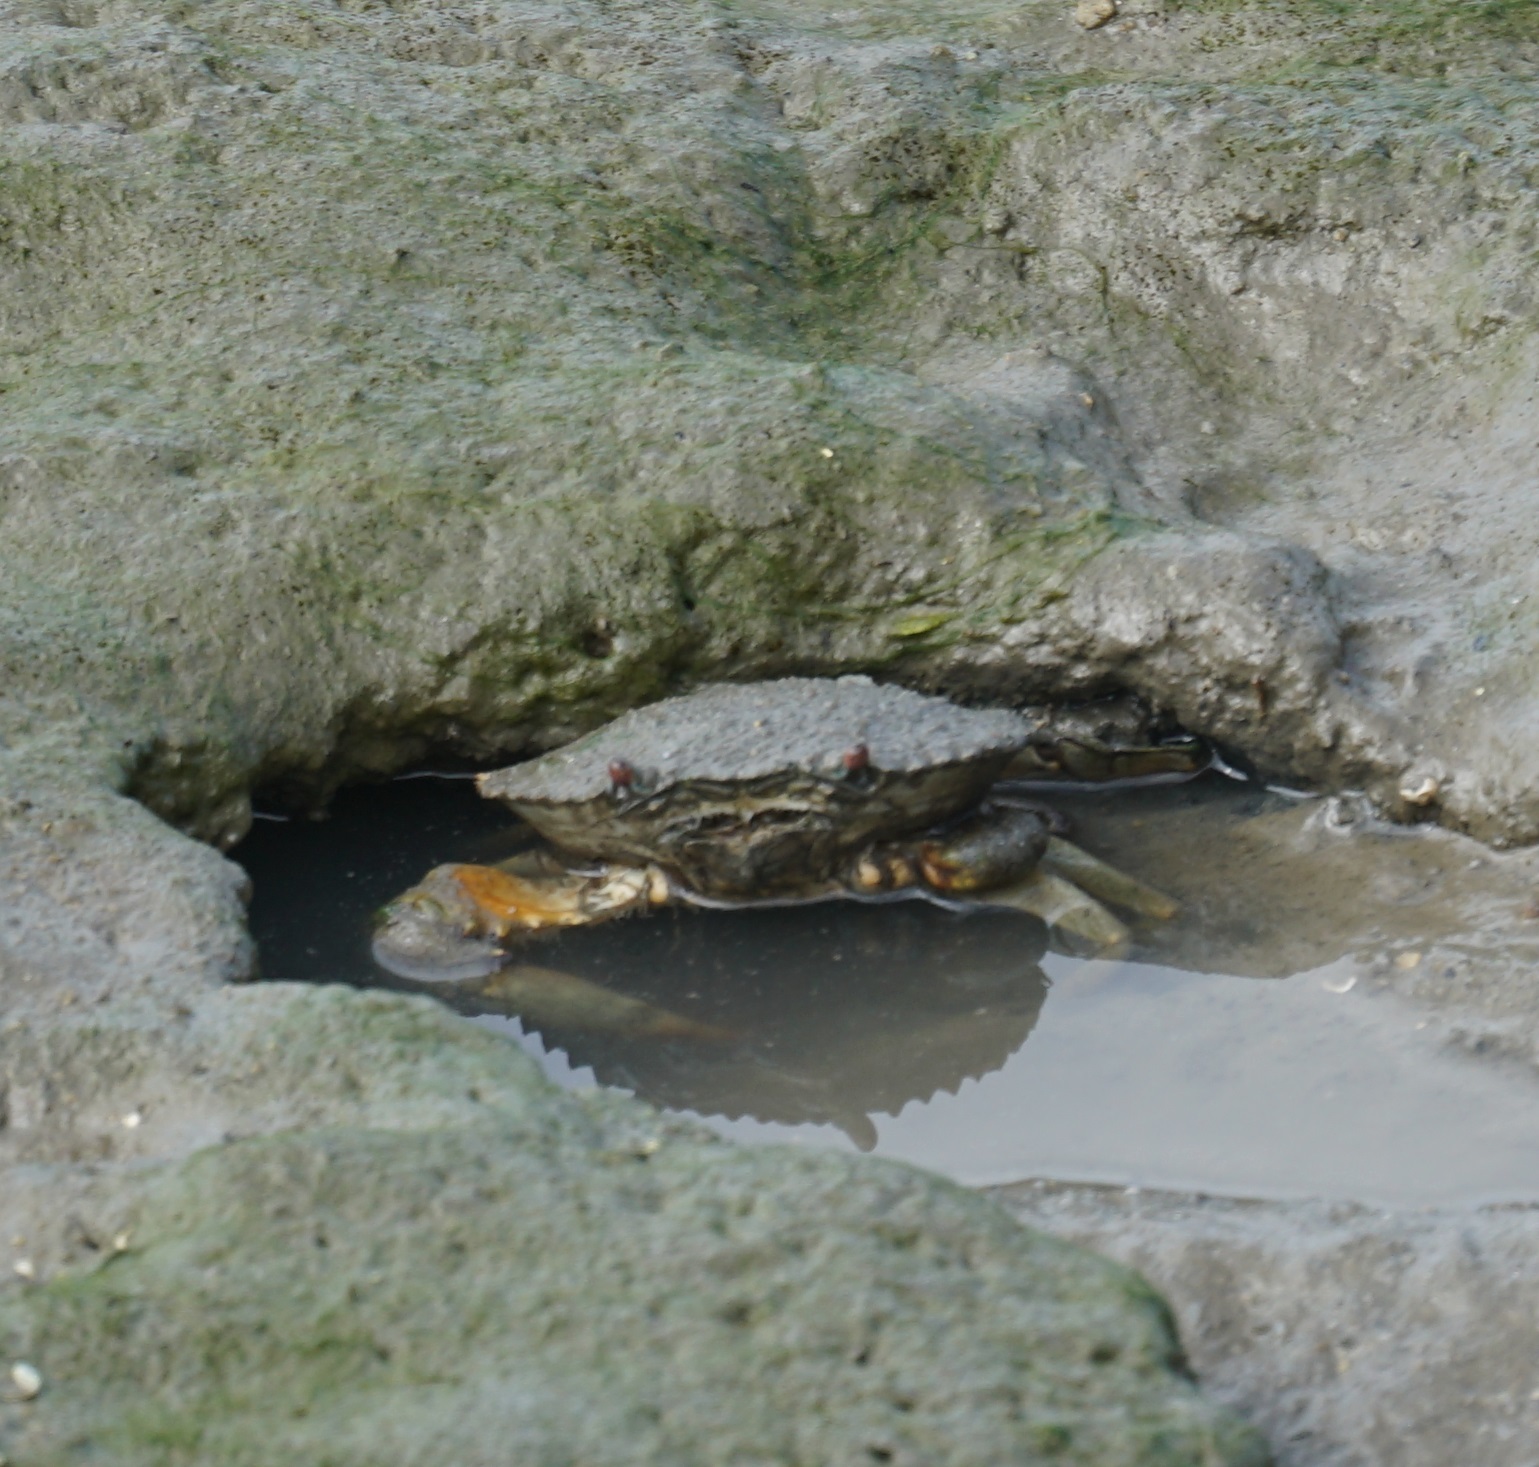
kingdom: Animalia
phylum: Arthropoda
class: Malacostraca
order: Decapoda
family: Portunidae
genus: Scylla
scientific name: Scylla serrata
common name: Giant mud crab
